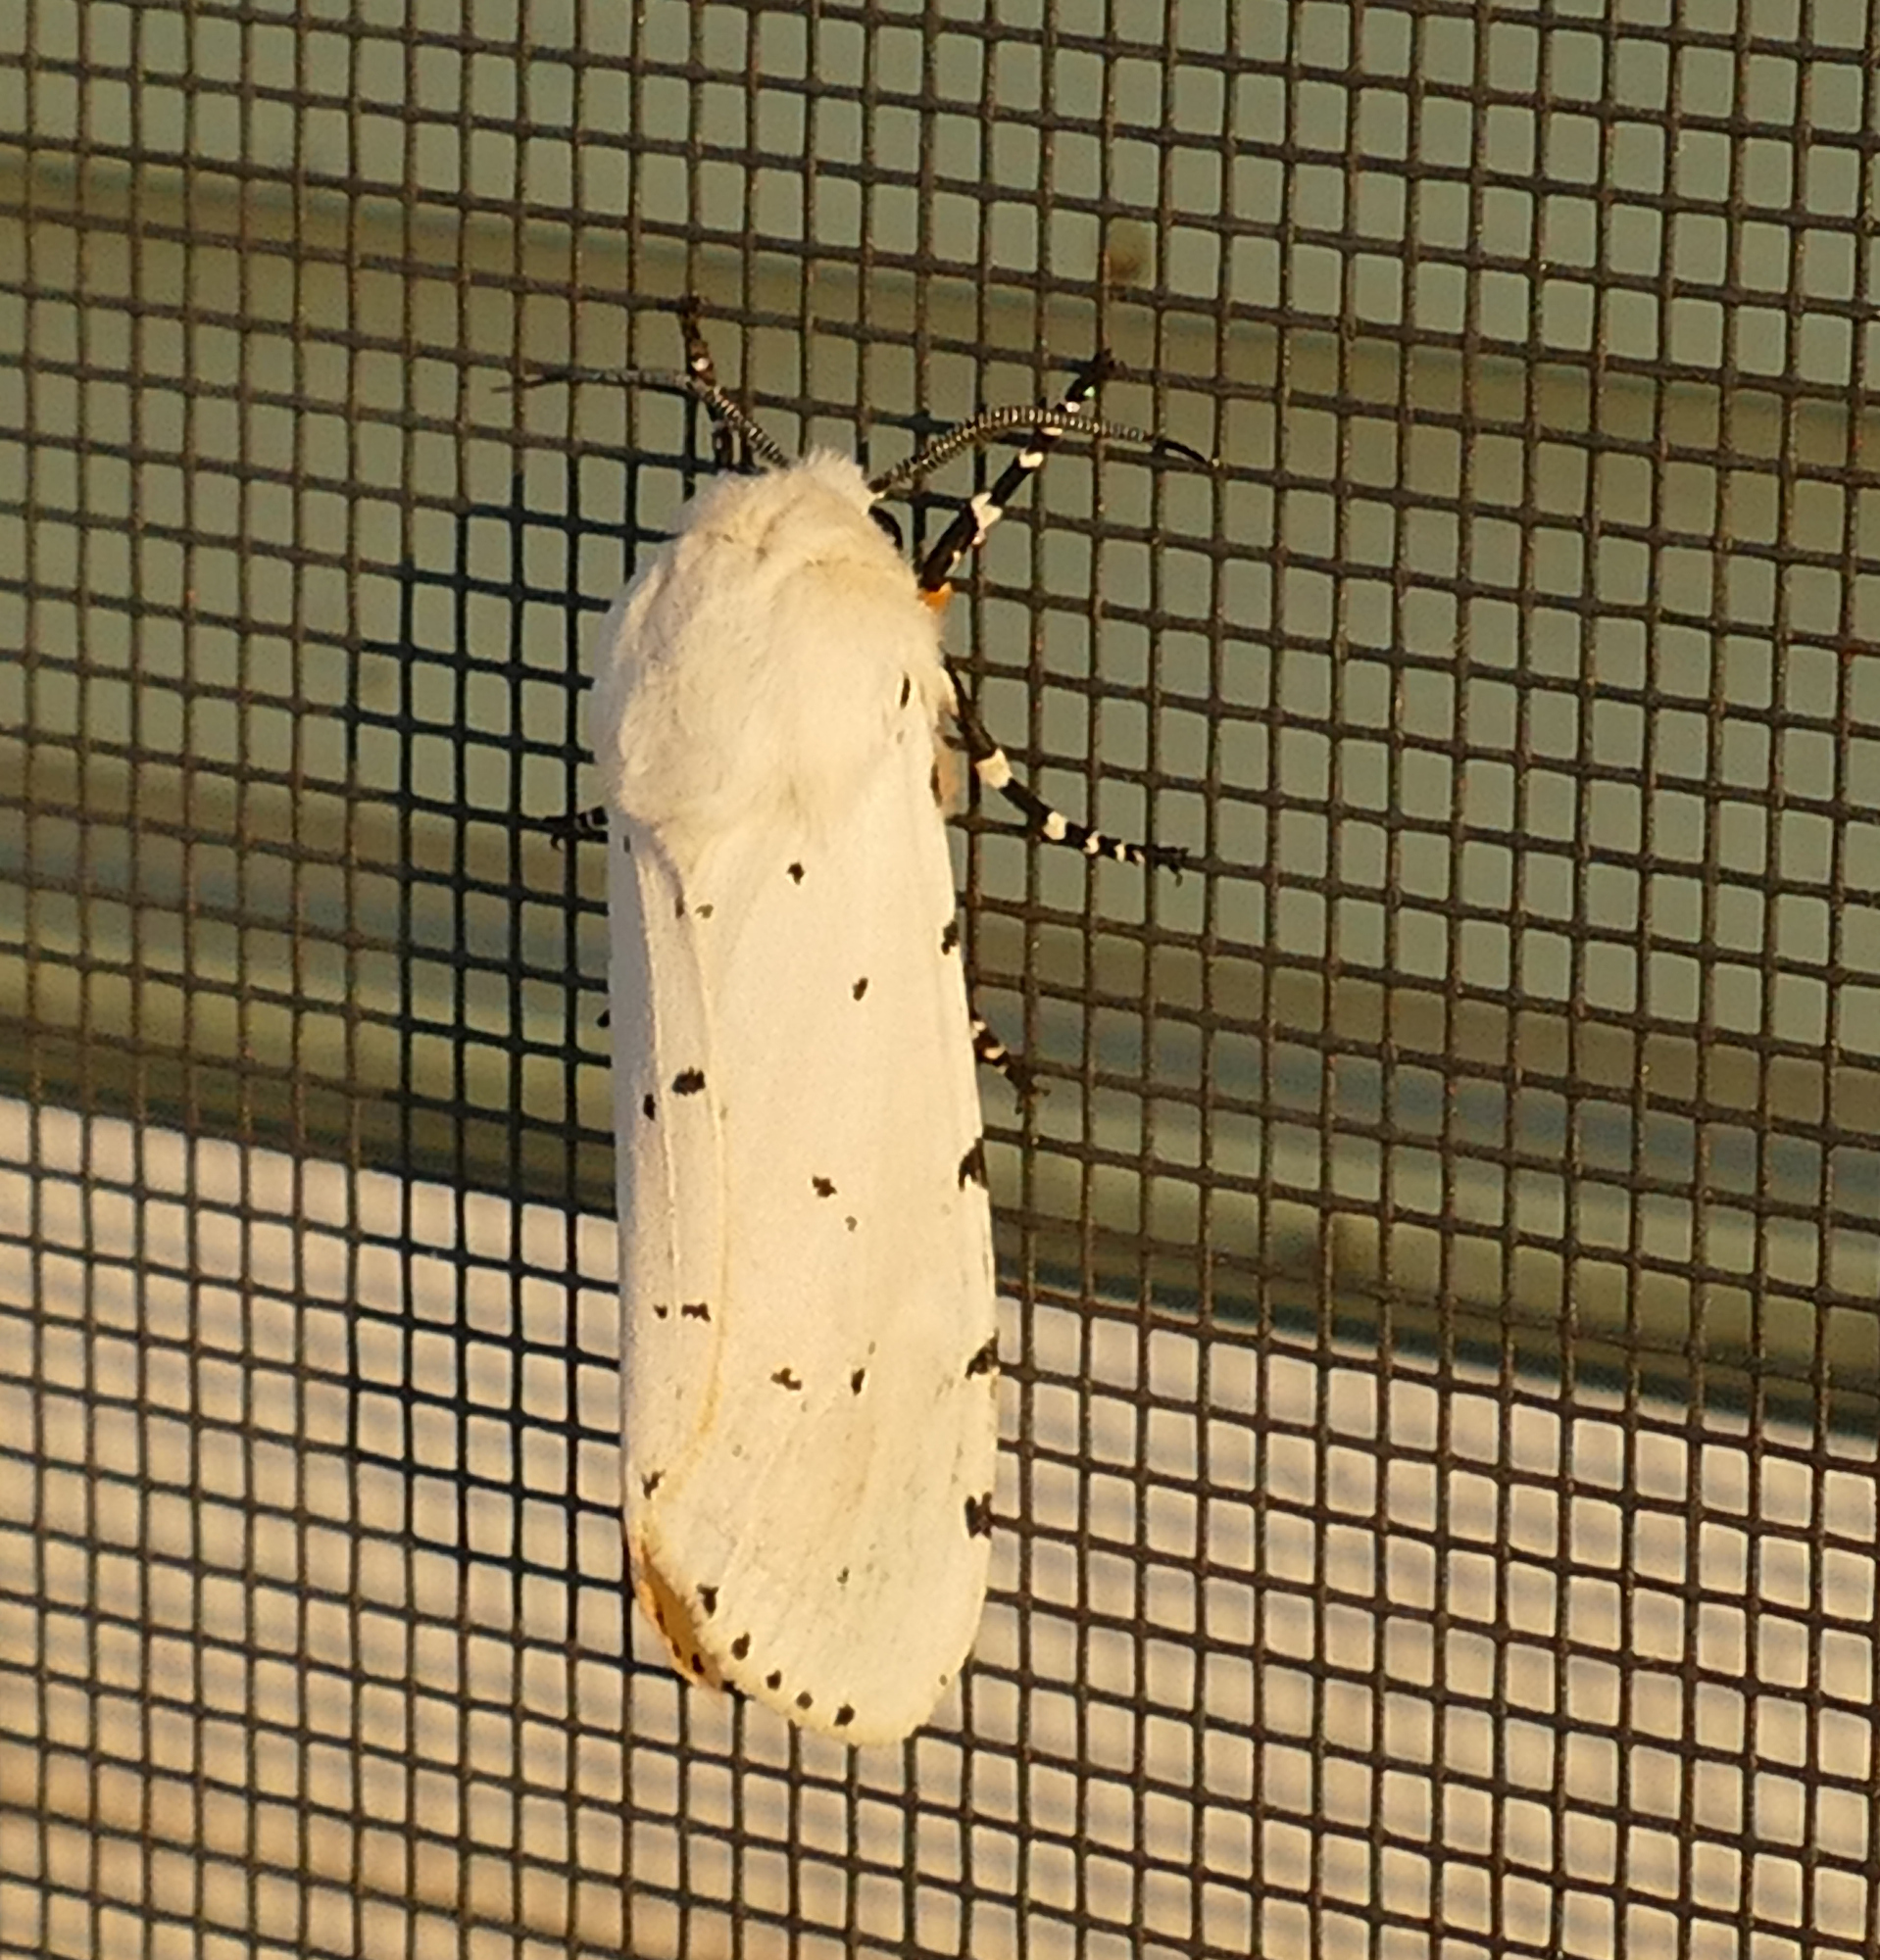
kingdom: Animalia
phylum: Arthropoda
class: Insecta
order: Lepidoptera
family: Erebidae
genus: Estigmene
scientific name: Estigmene acrea
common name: Salt marsh moth
